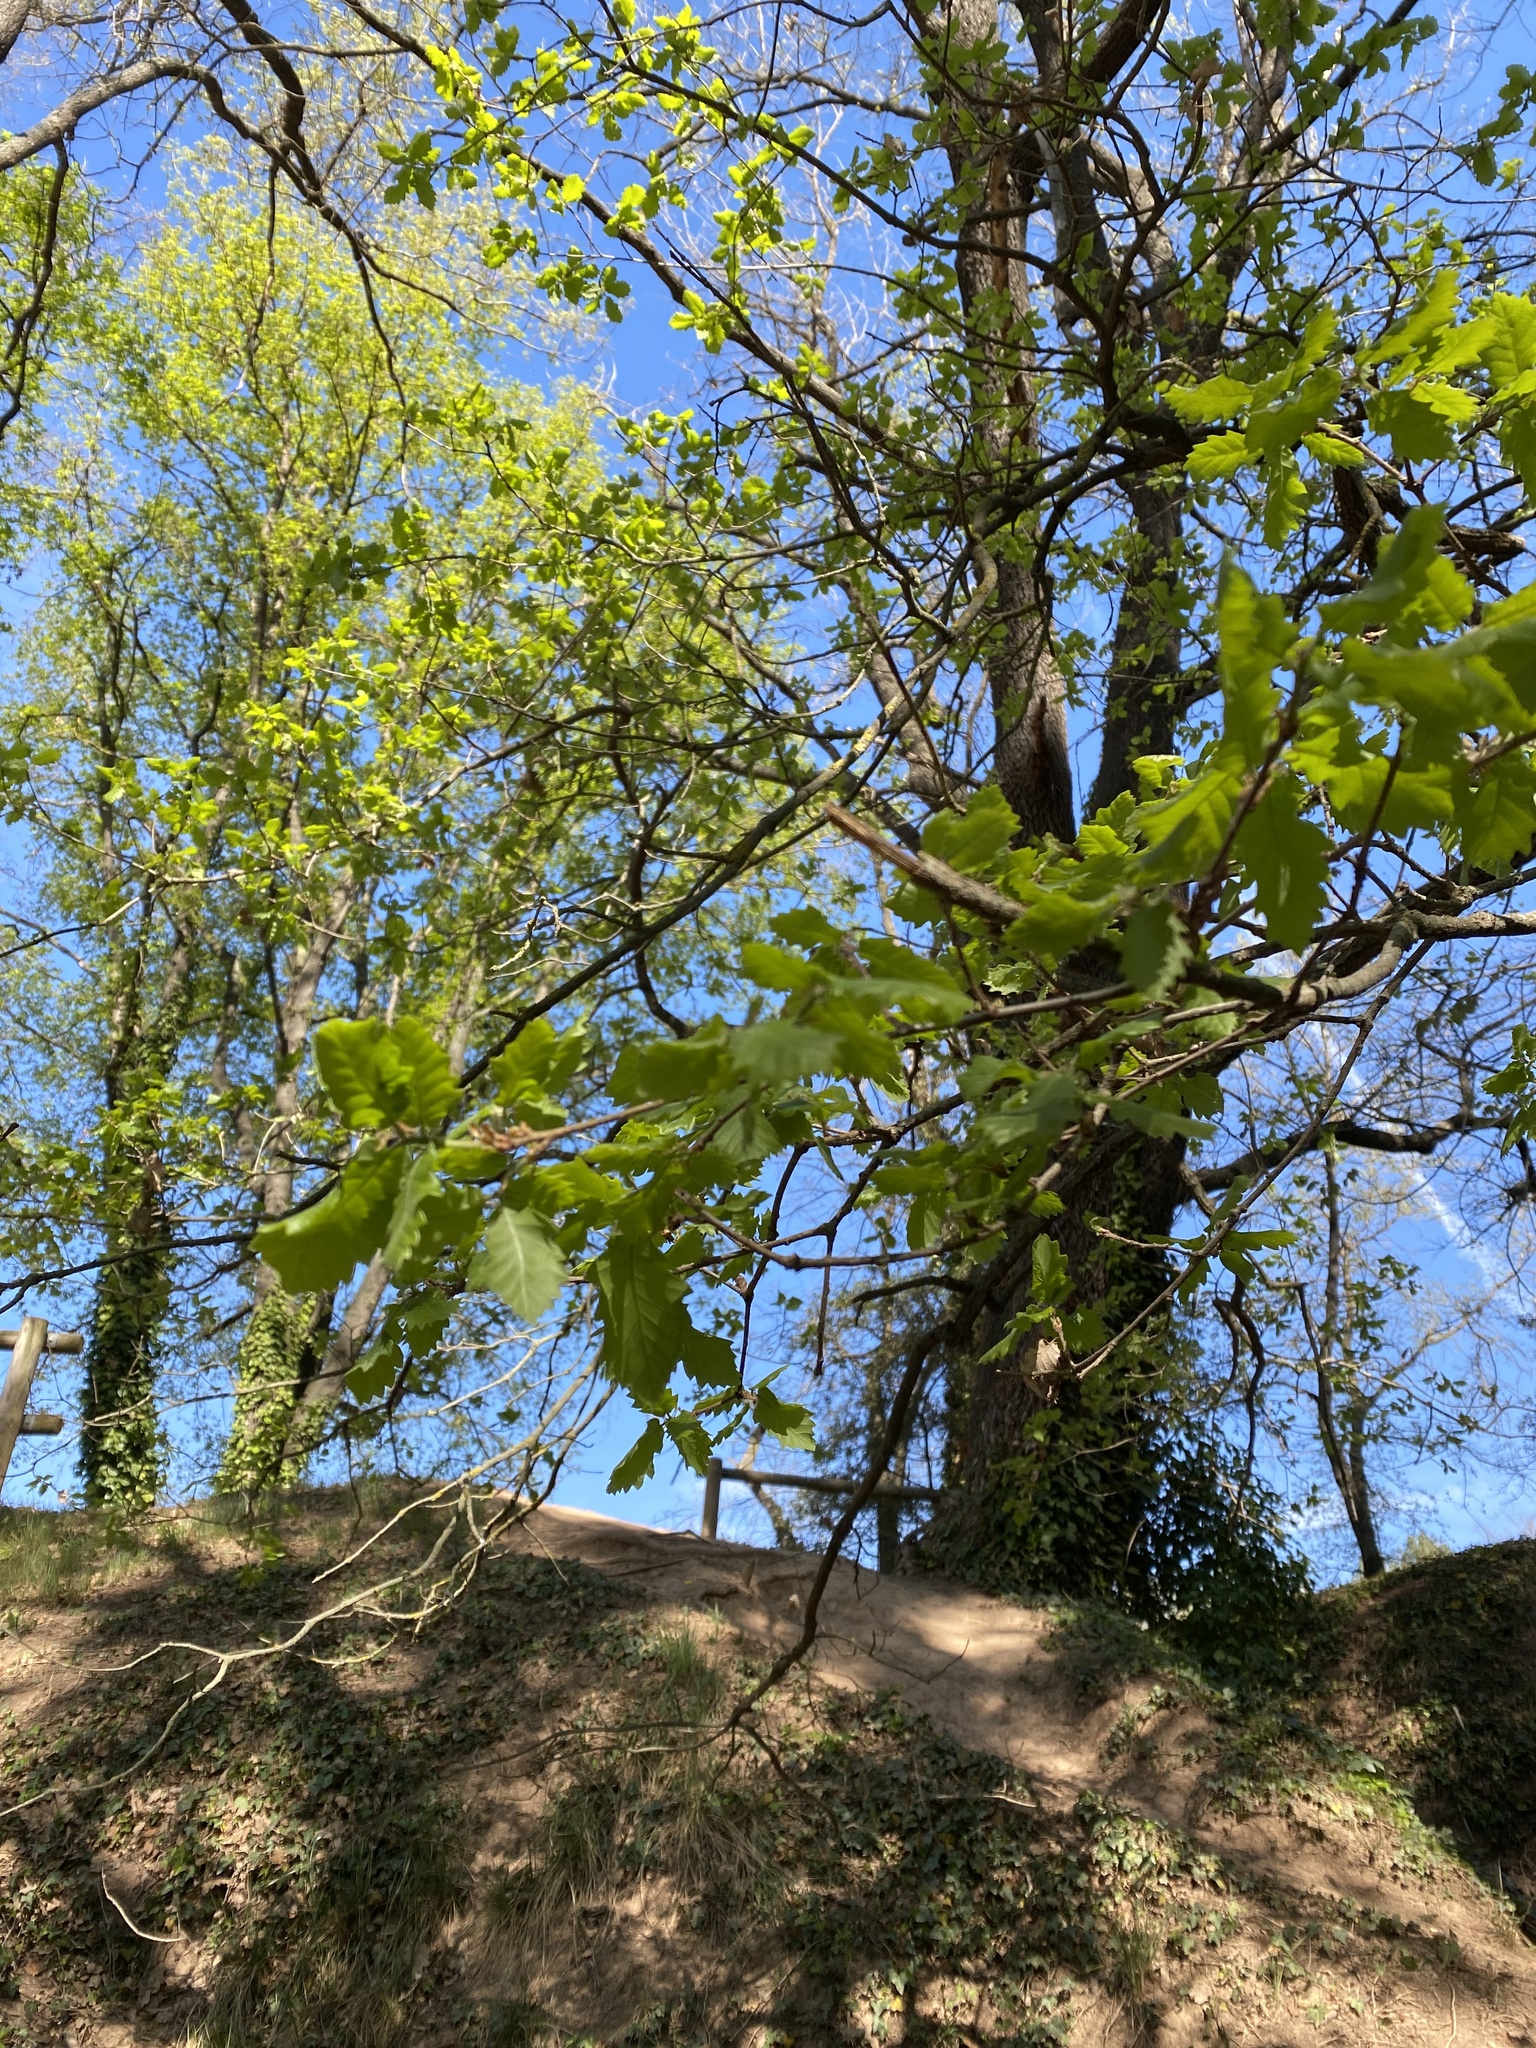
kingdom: Plantae
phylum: Tracheophyta
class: Magnoliopsida
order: Fagales
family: Fagaceae
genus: Quercus
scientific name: Quercus cerrioides
